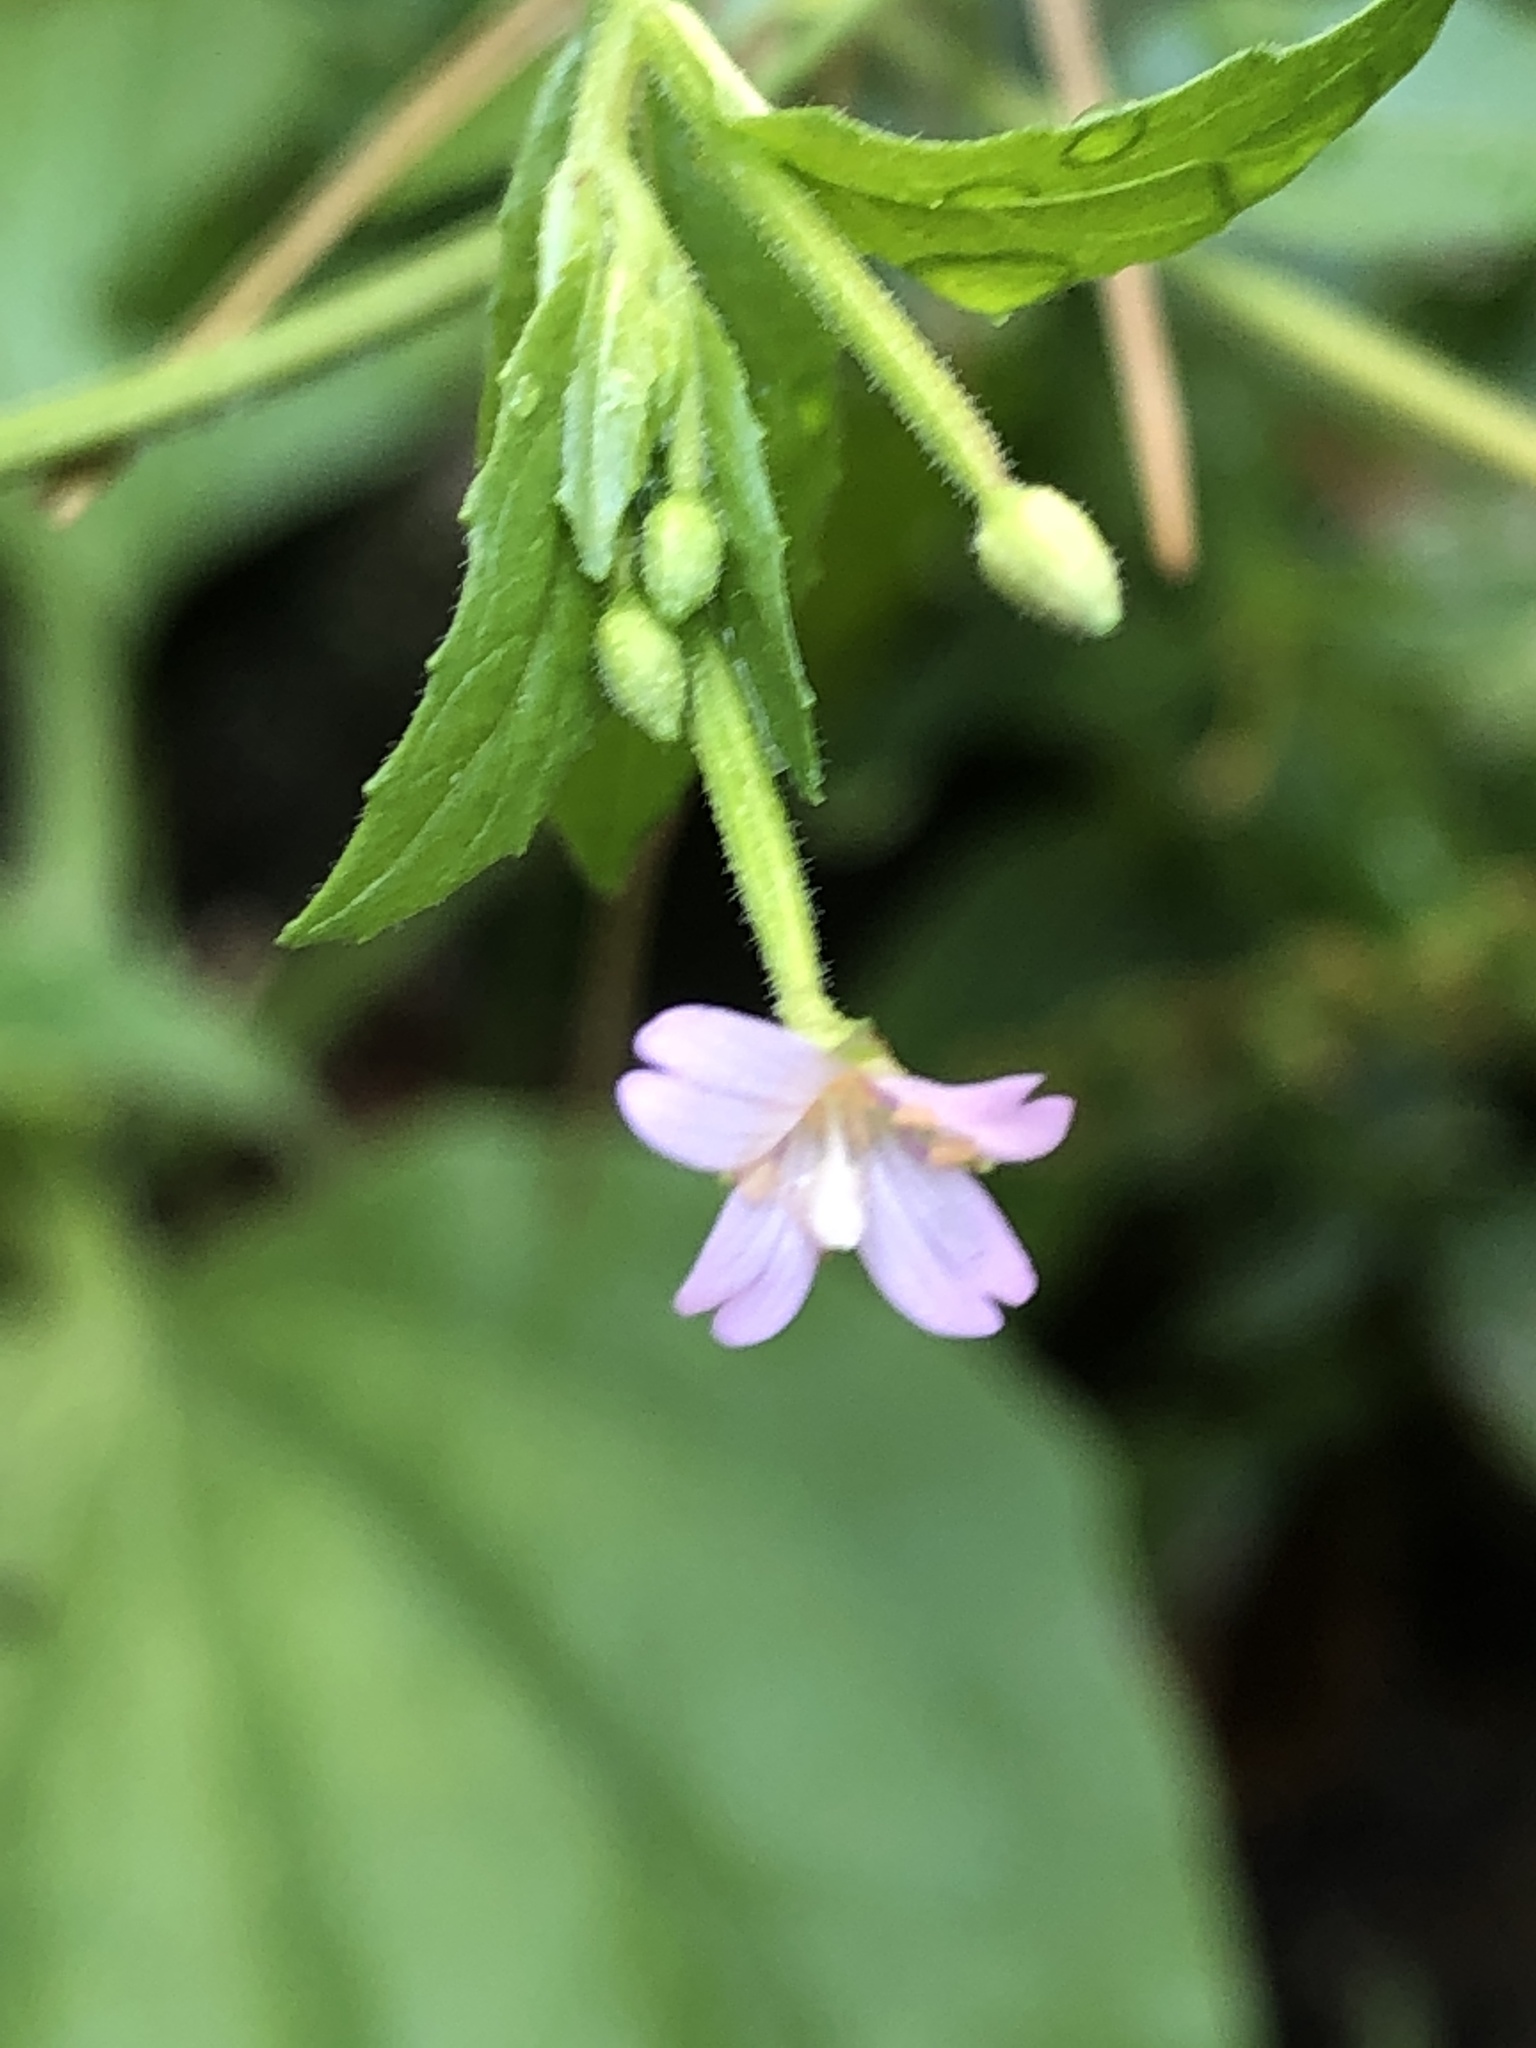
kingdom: Plantae
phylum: Tracheophyta
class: Magnoliopsida
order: Myrtales
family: Onagraceae
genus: Epilobium
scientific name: Epilobium parviflorum
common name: Hoary willowherb
